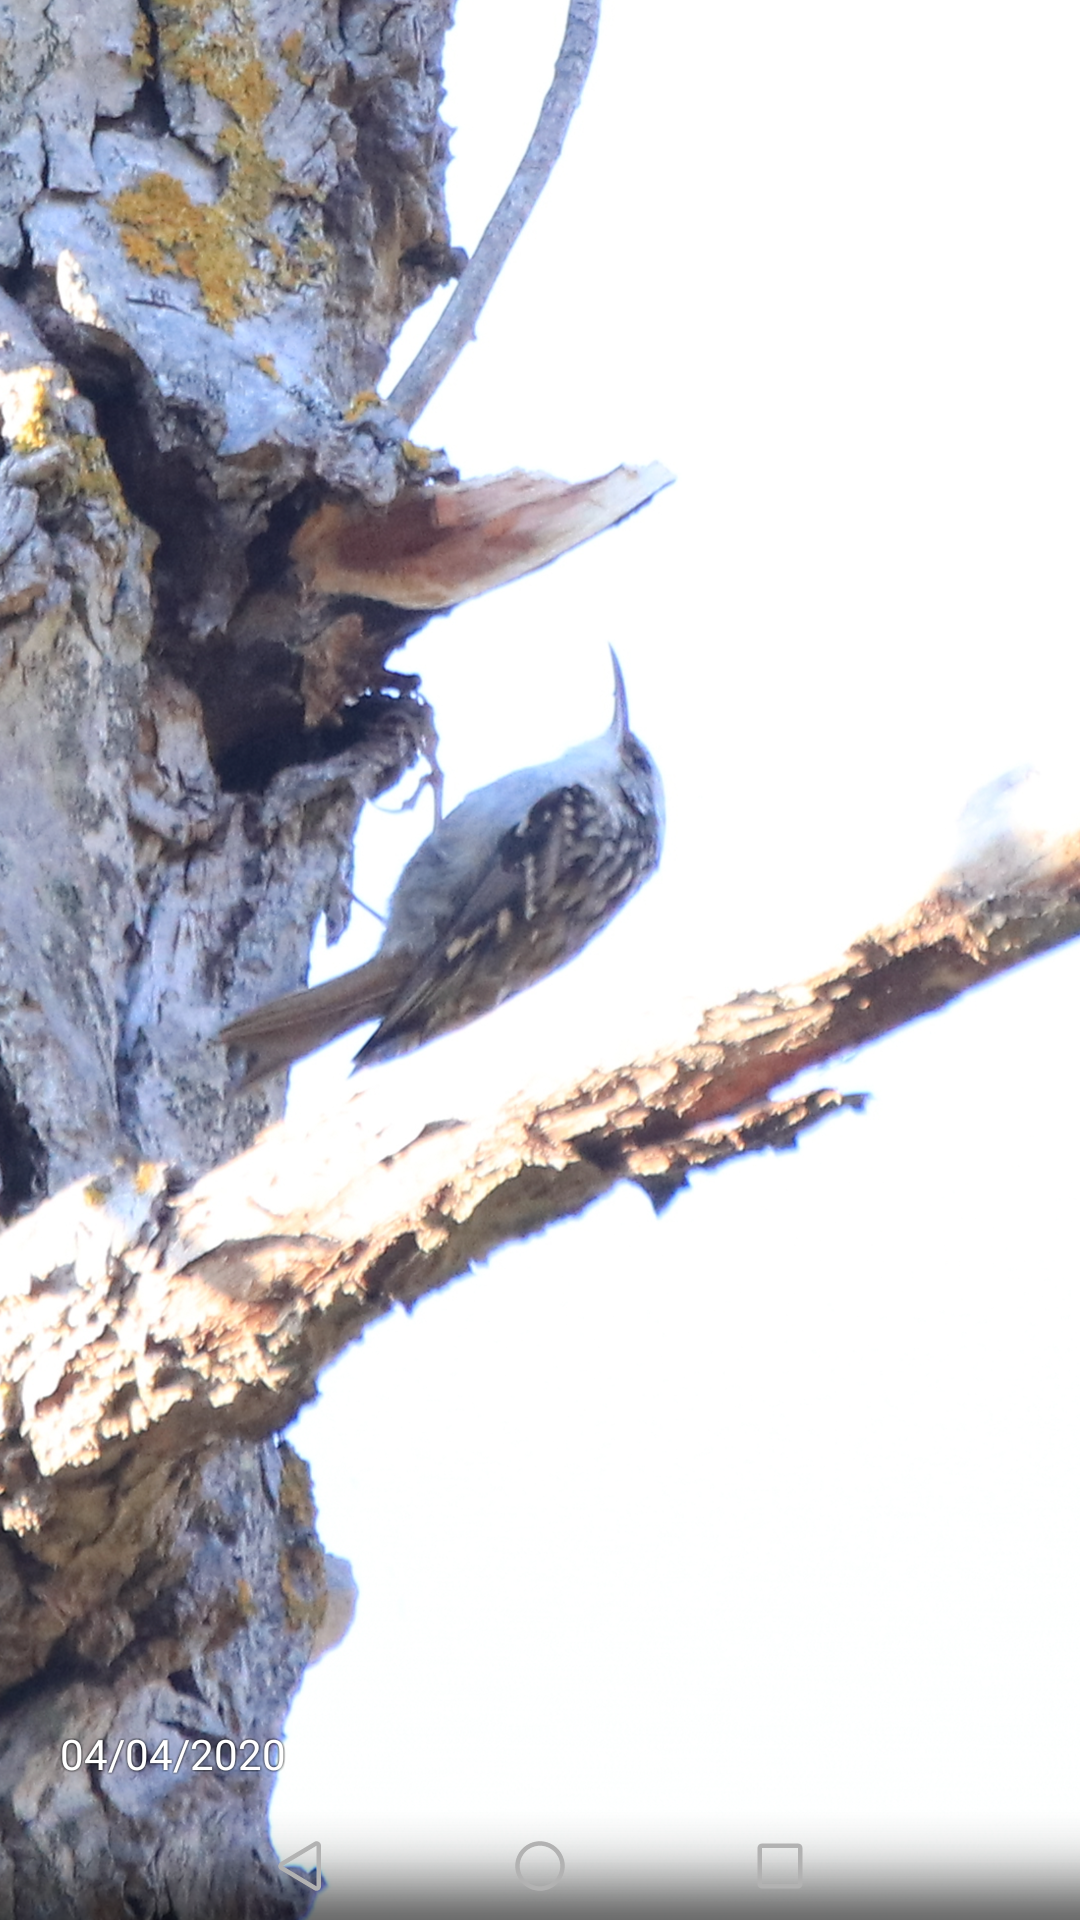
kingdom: Animalia
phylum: Chordata
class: Aves
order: Passeriformes
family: Certhiidae
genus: Certhia
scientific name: Certhia brachydactyla
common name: Short-toed treecreeper
